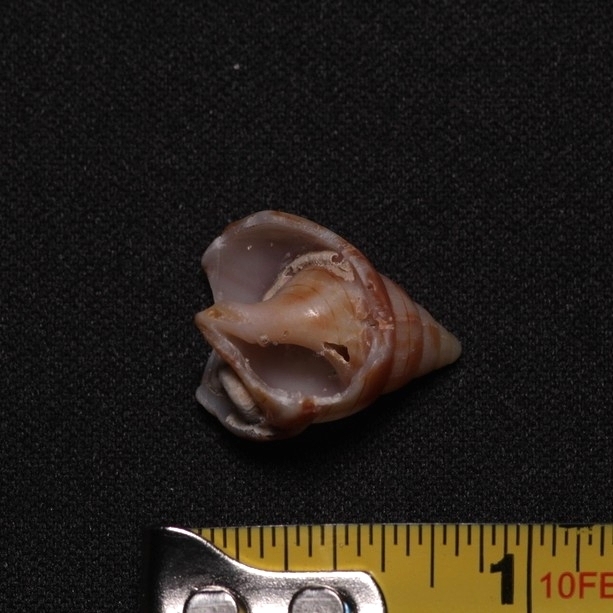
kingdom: Animalia
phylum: Mollusca
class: Gastropoda
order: Neogastropoda
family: Fasciolariidae
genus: Cinctura
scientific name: Cinctura hunteria
